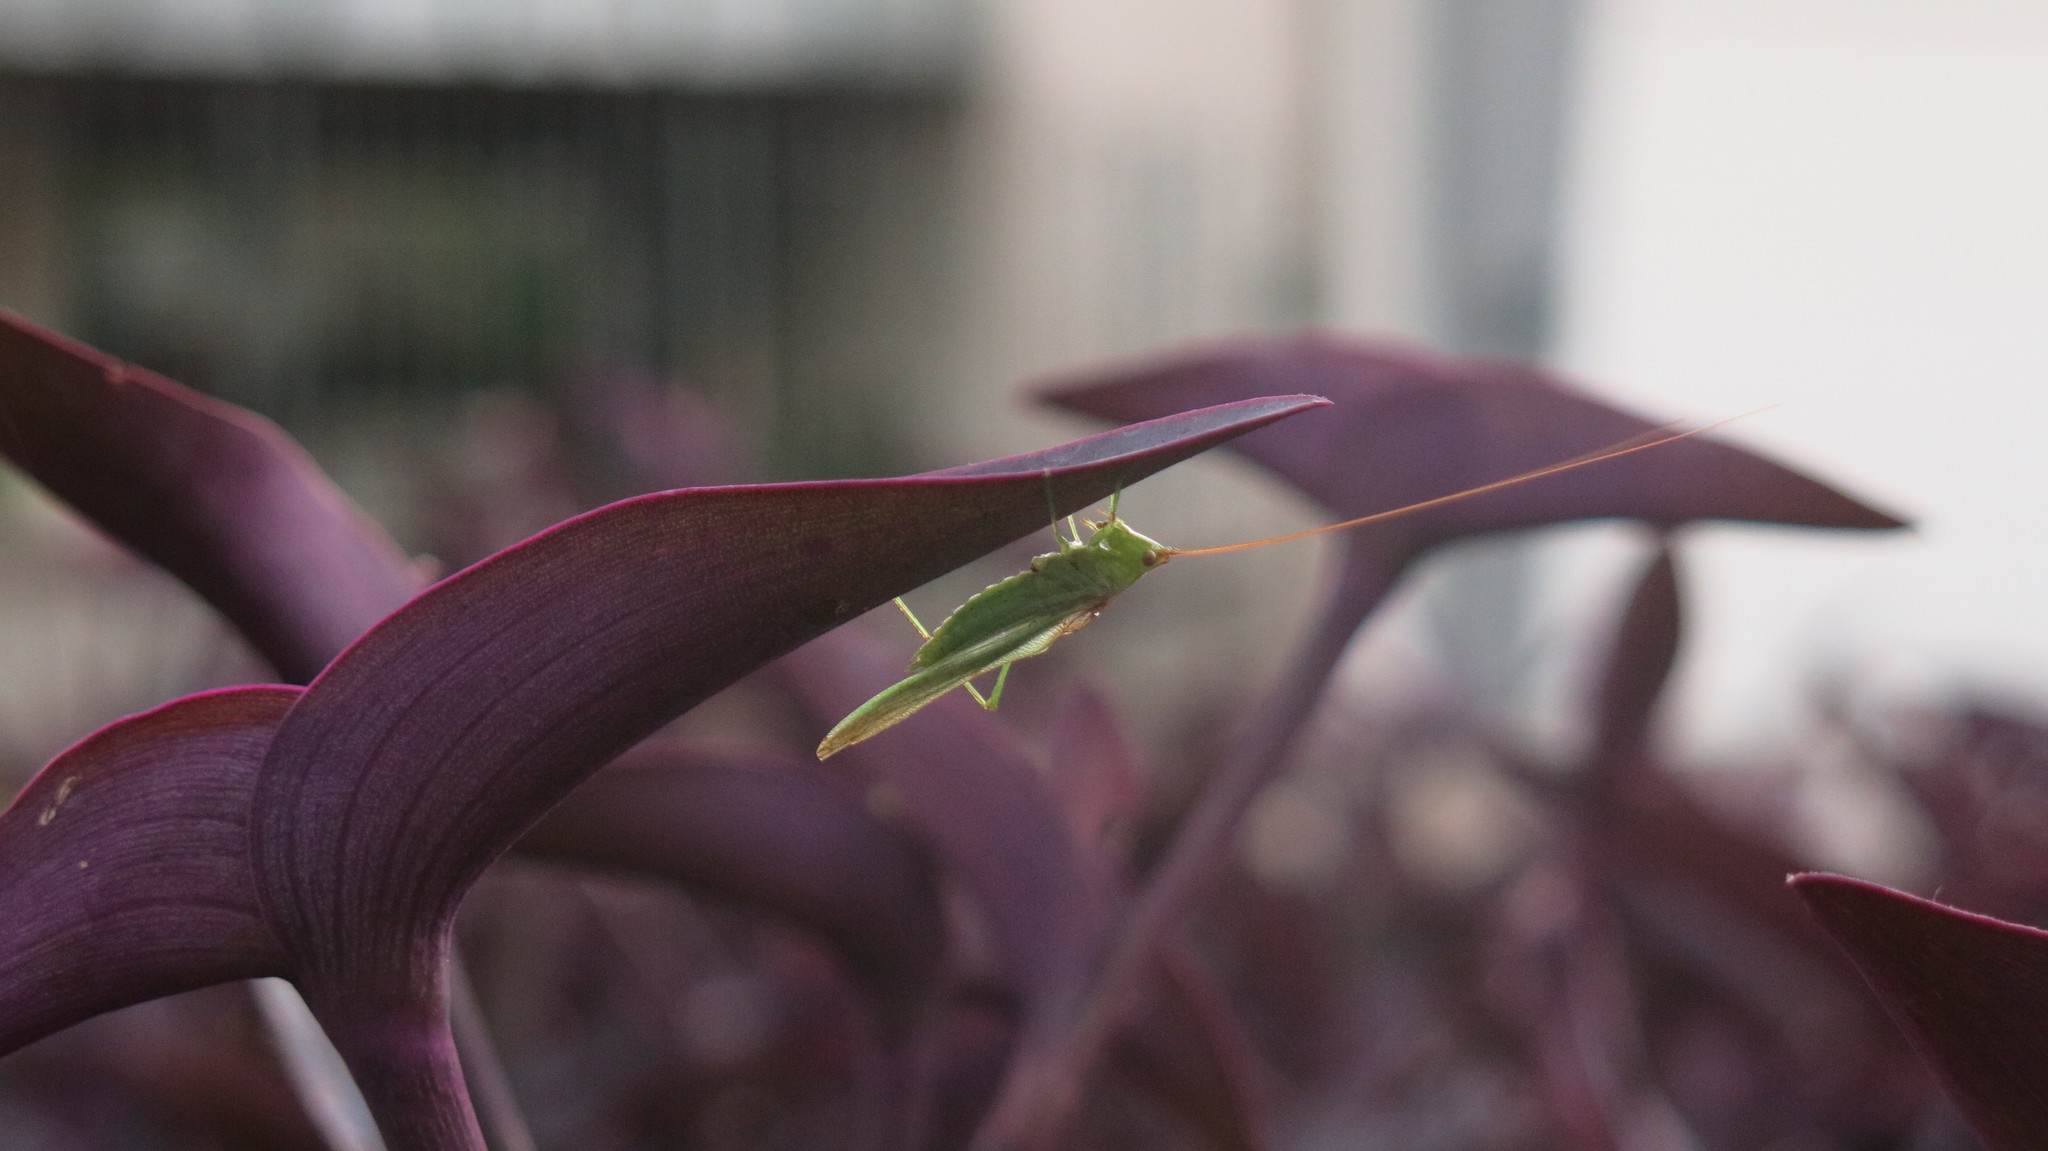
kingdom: Animalia
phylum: Arthropoda
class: Insecta
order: Orthoptera
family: Tettigoniidae
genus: Conocephalus
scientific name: Conocephalus longipes
